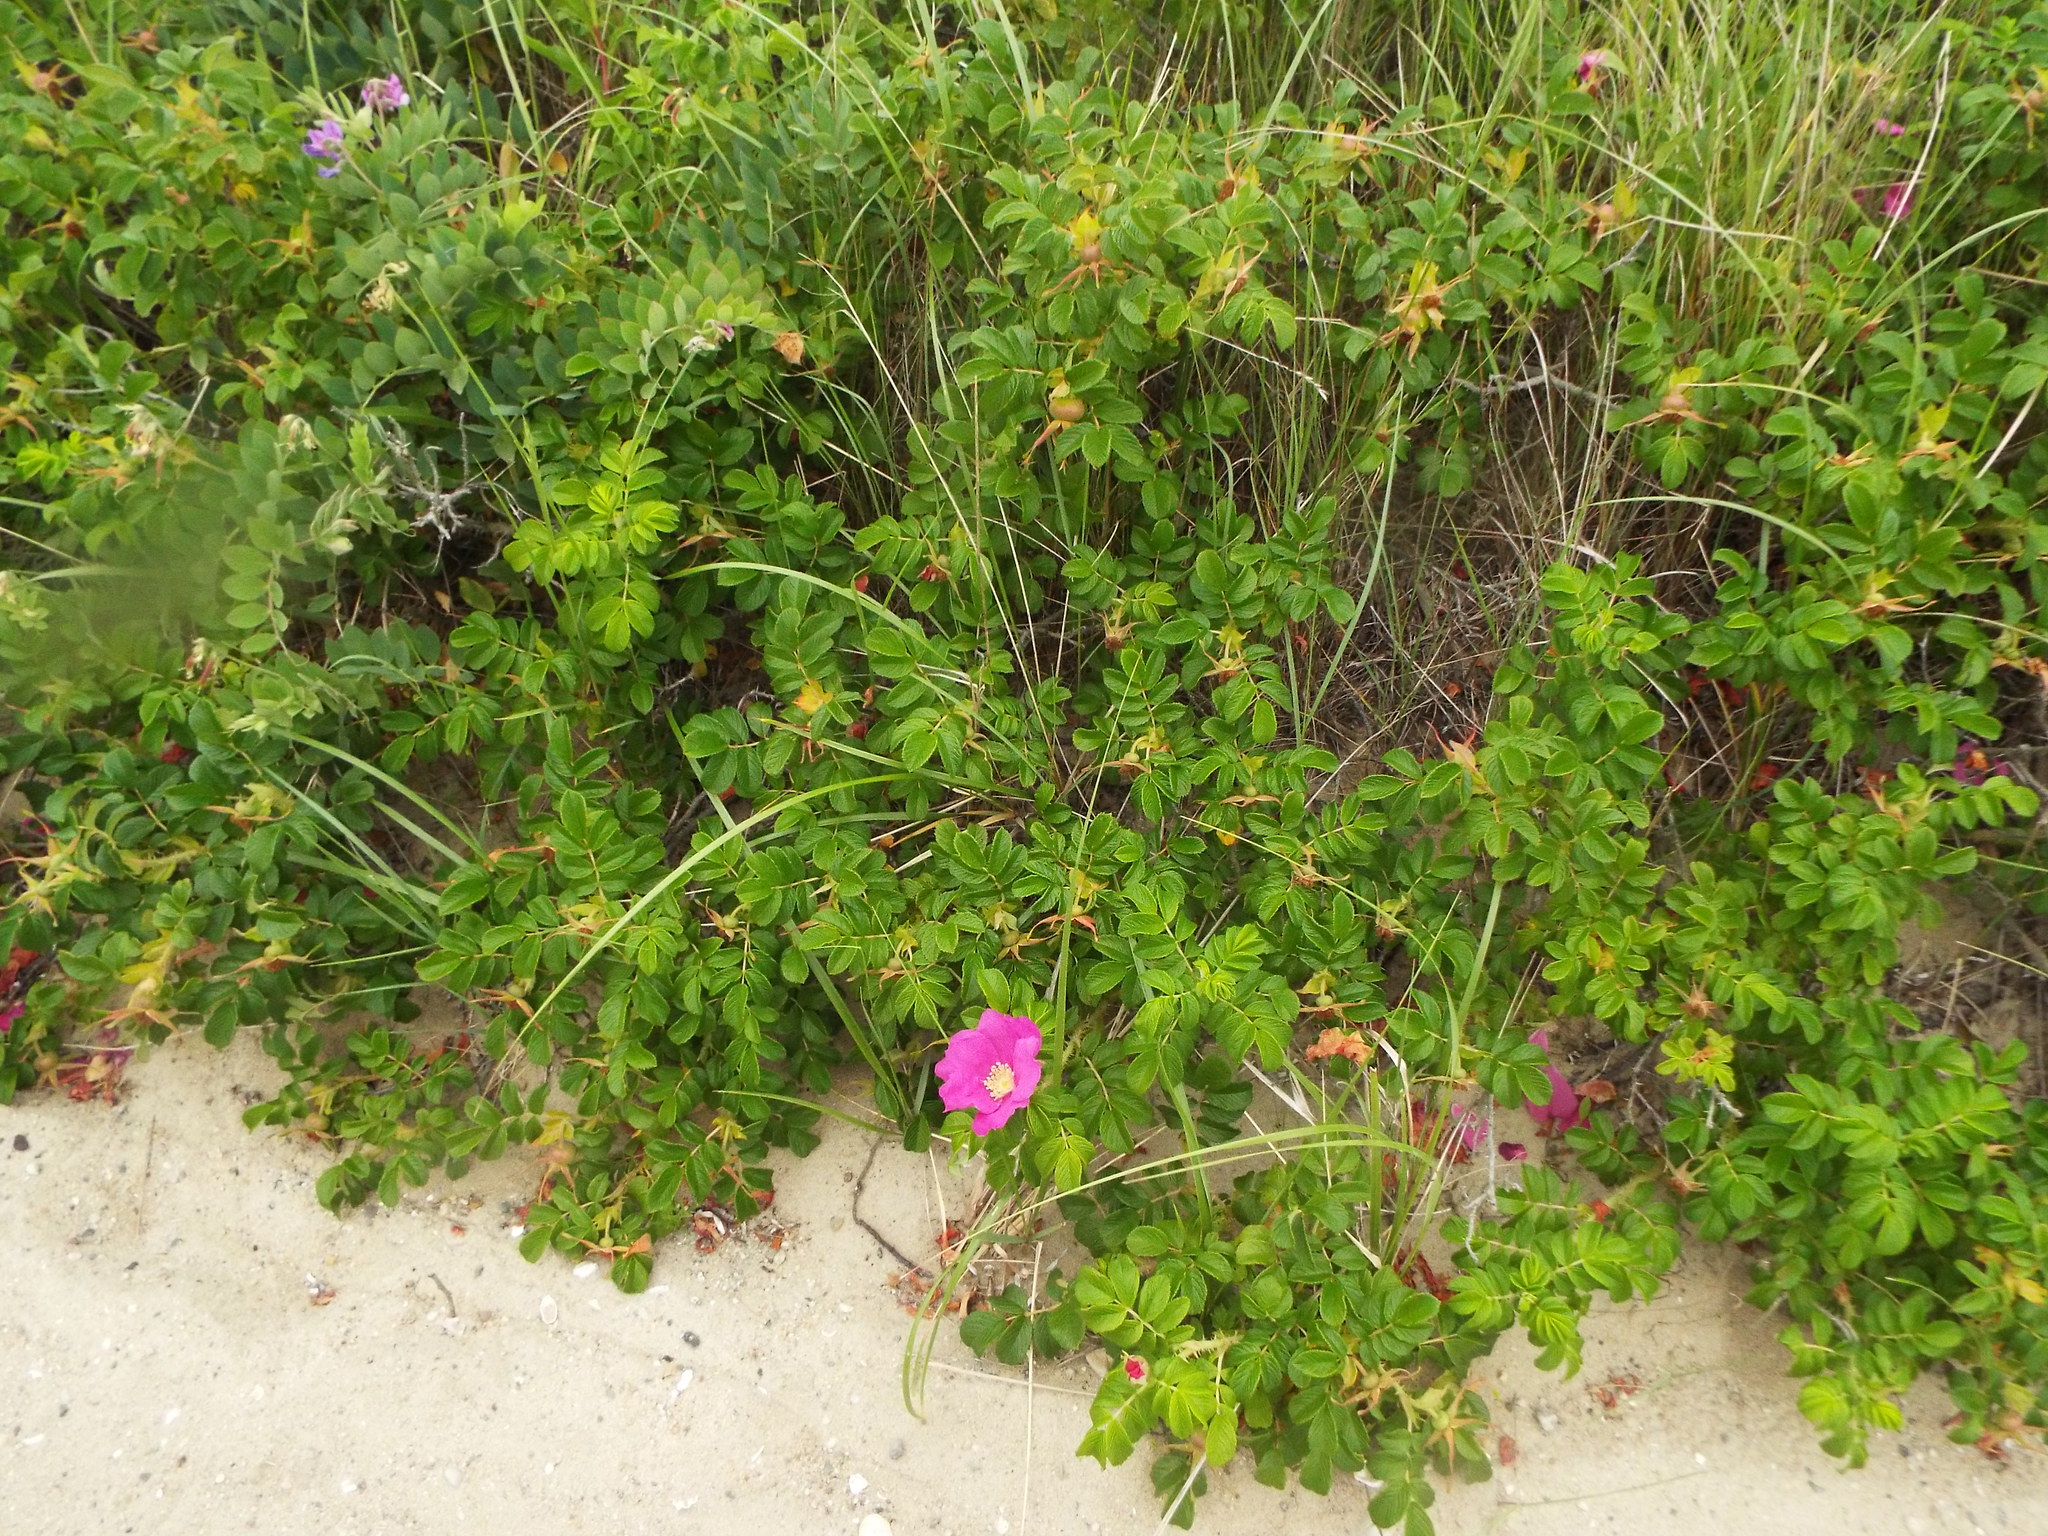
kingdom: Plantae
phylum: Tracheophyta
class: Magnoliopsida
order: Rosales
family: Rosaceae
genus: Rosa
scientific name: Rosa rugosa
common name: Japanese rose
